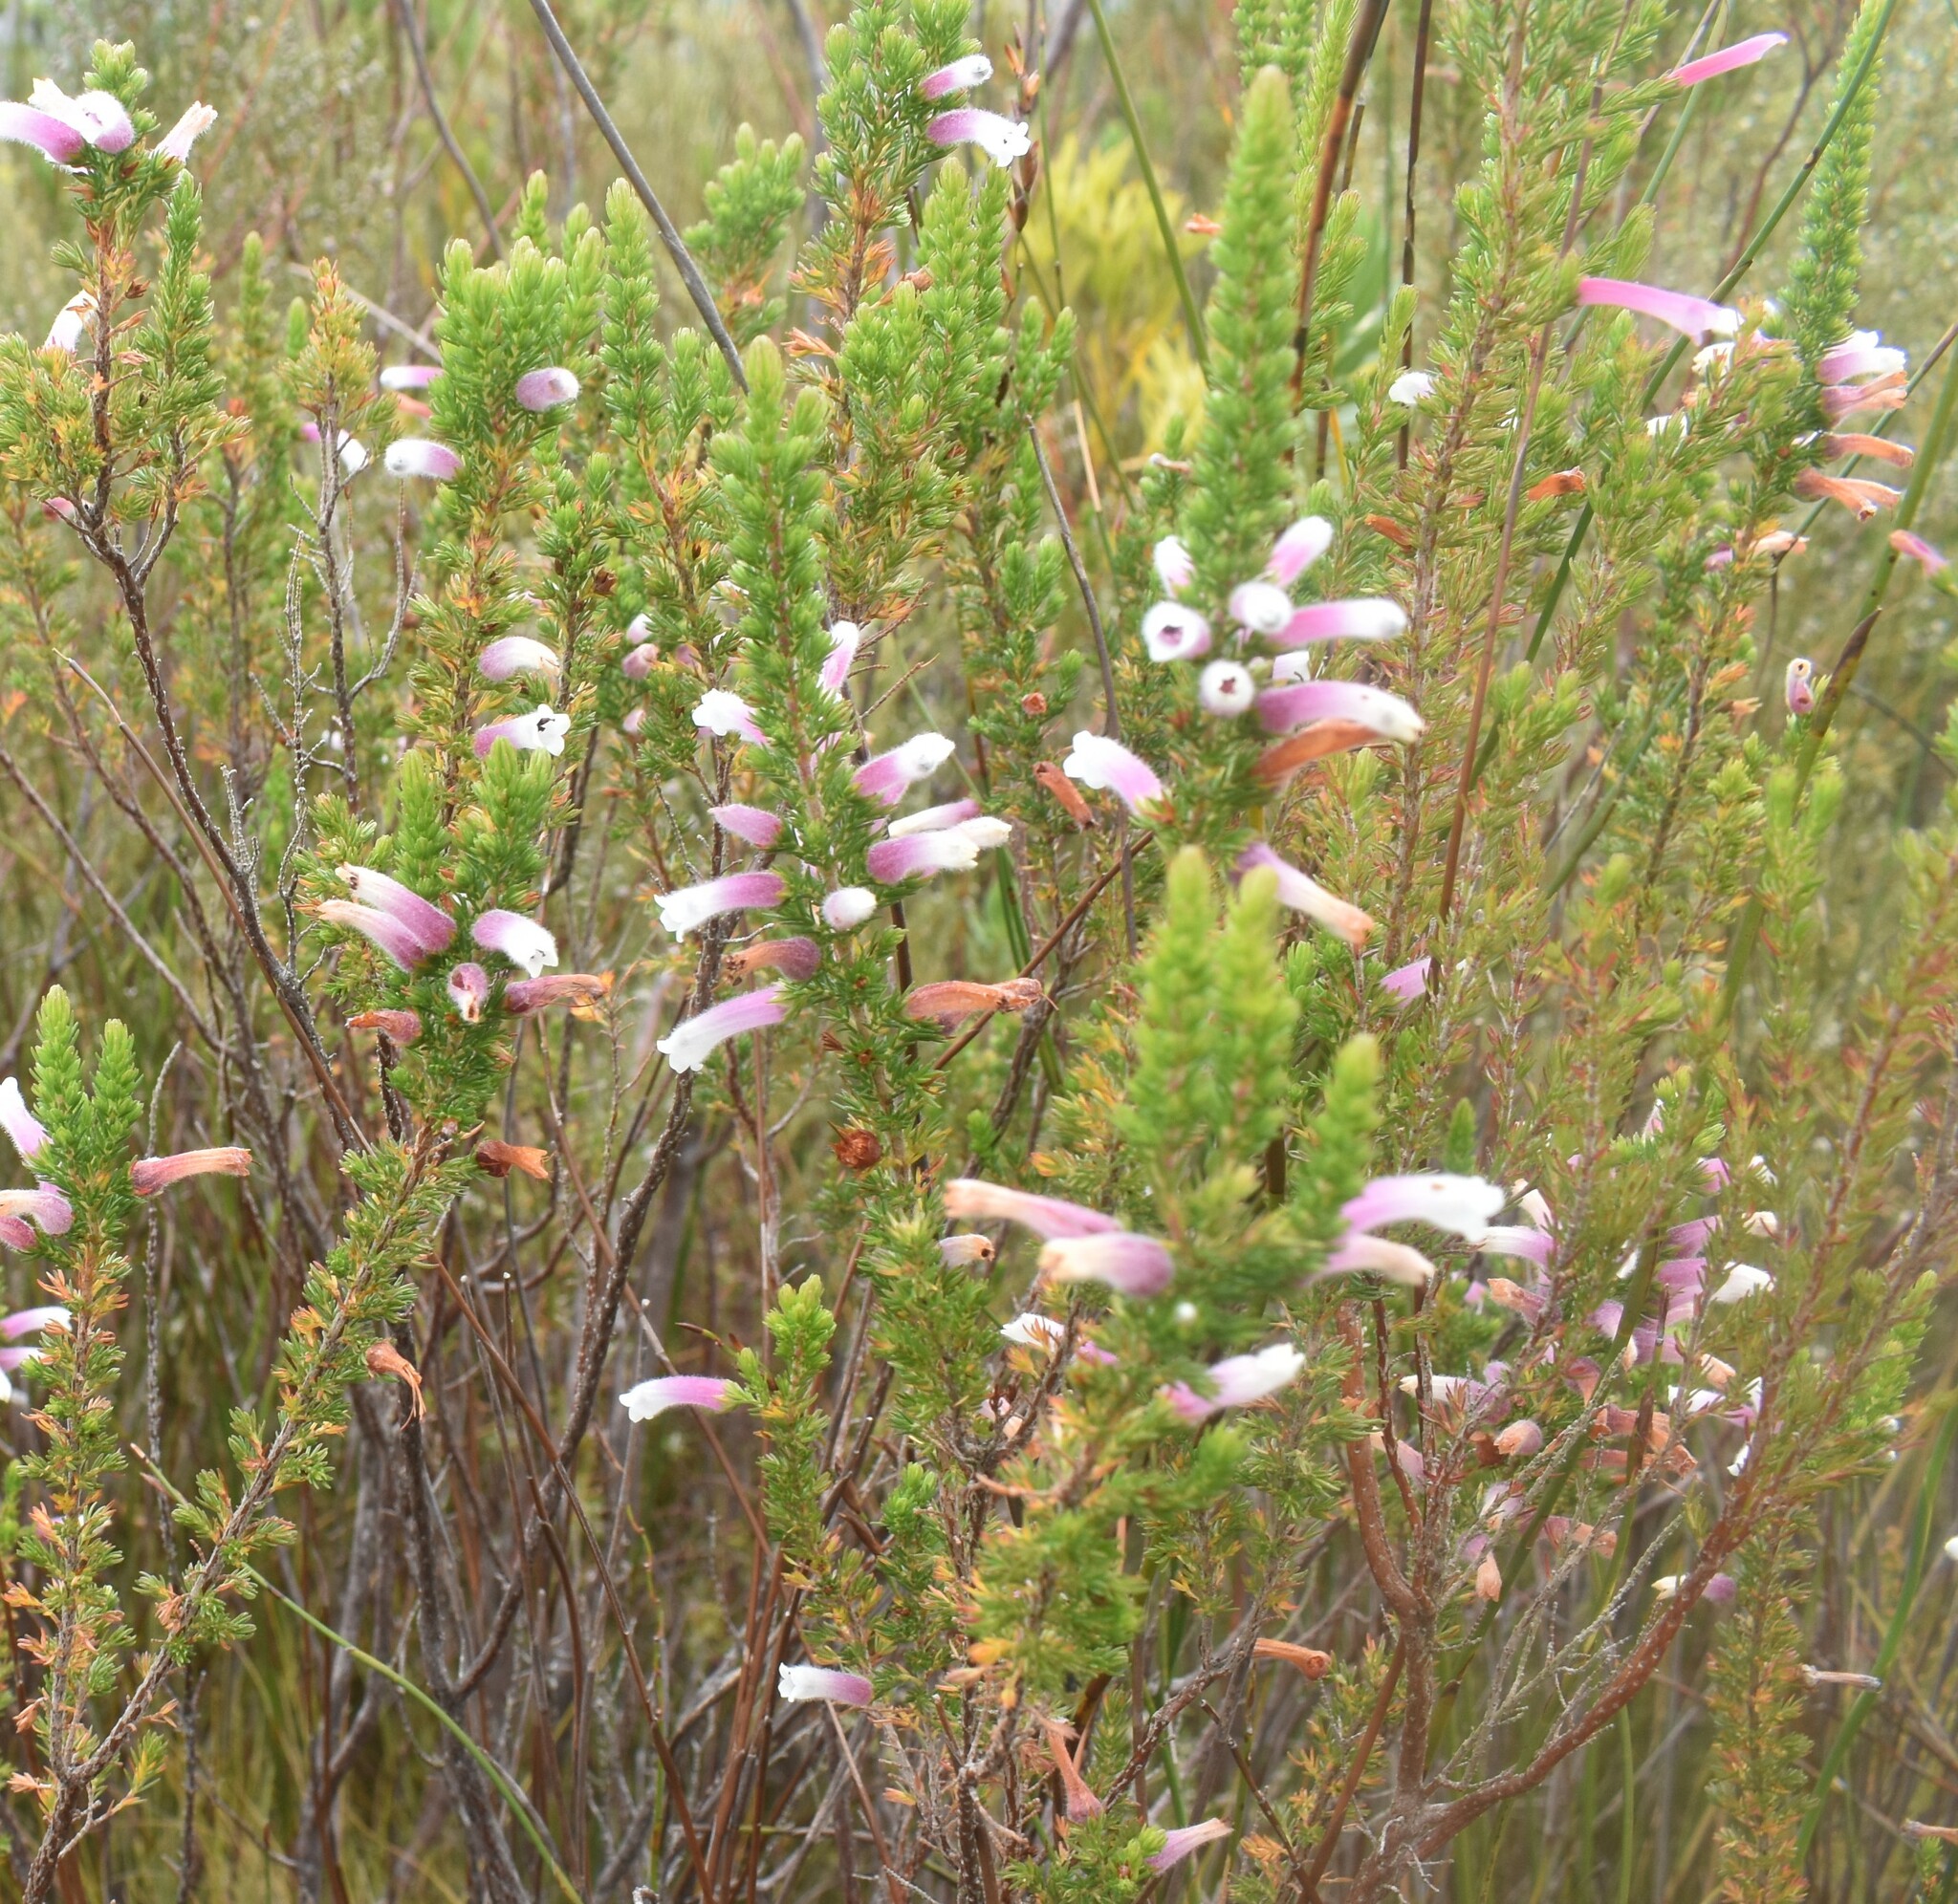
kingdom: Plantae
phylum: Tracheophyta
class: Magnoliopsida
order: Ericales
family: Ericaceae
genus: Erica
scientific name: Erica perspicua
